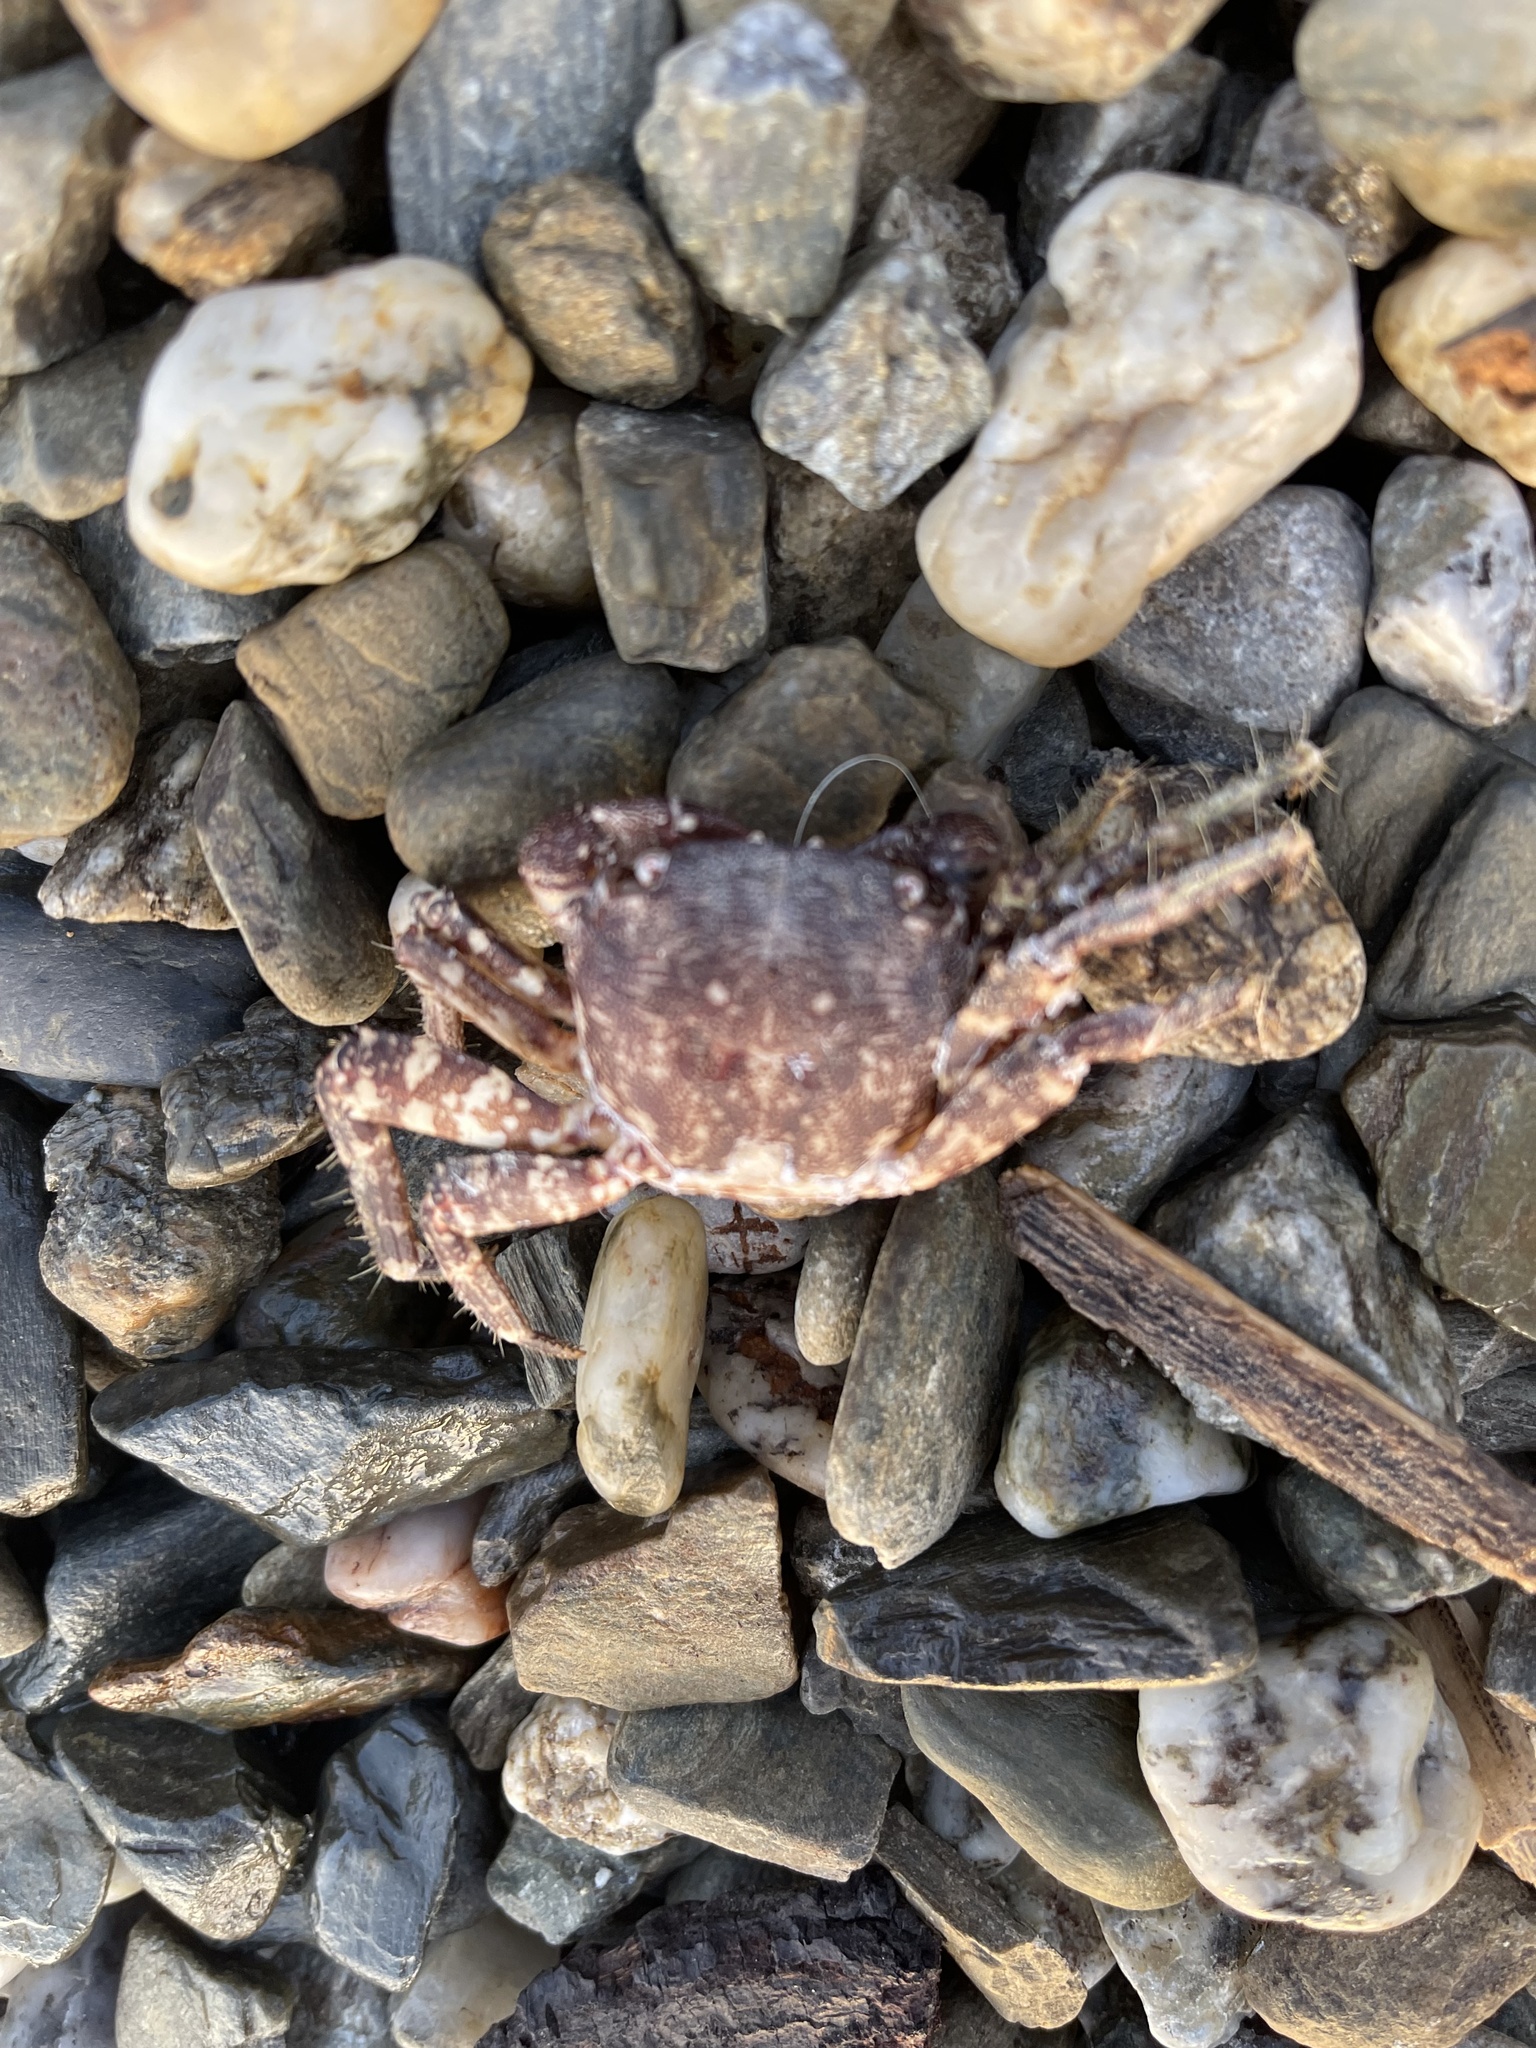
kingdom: Animalia
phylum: Arthropoda
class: Malacostraca
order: Decapoda
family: Grapsidae
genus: Pachygrapsus
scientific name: Pachygrapsus marmoratus
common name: Marbled rock crab
